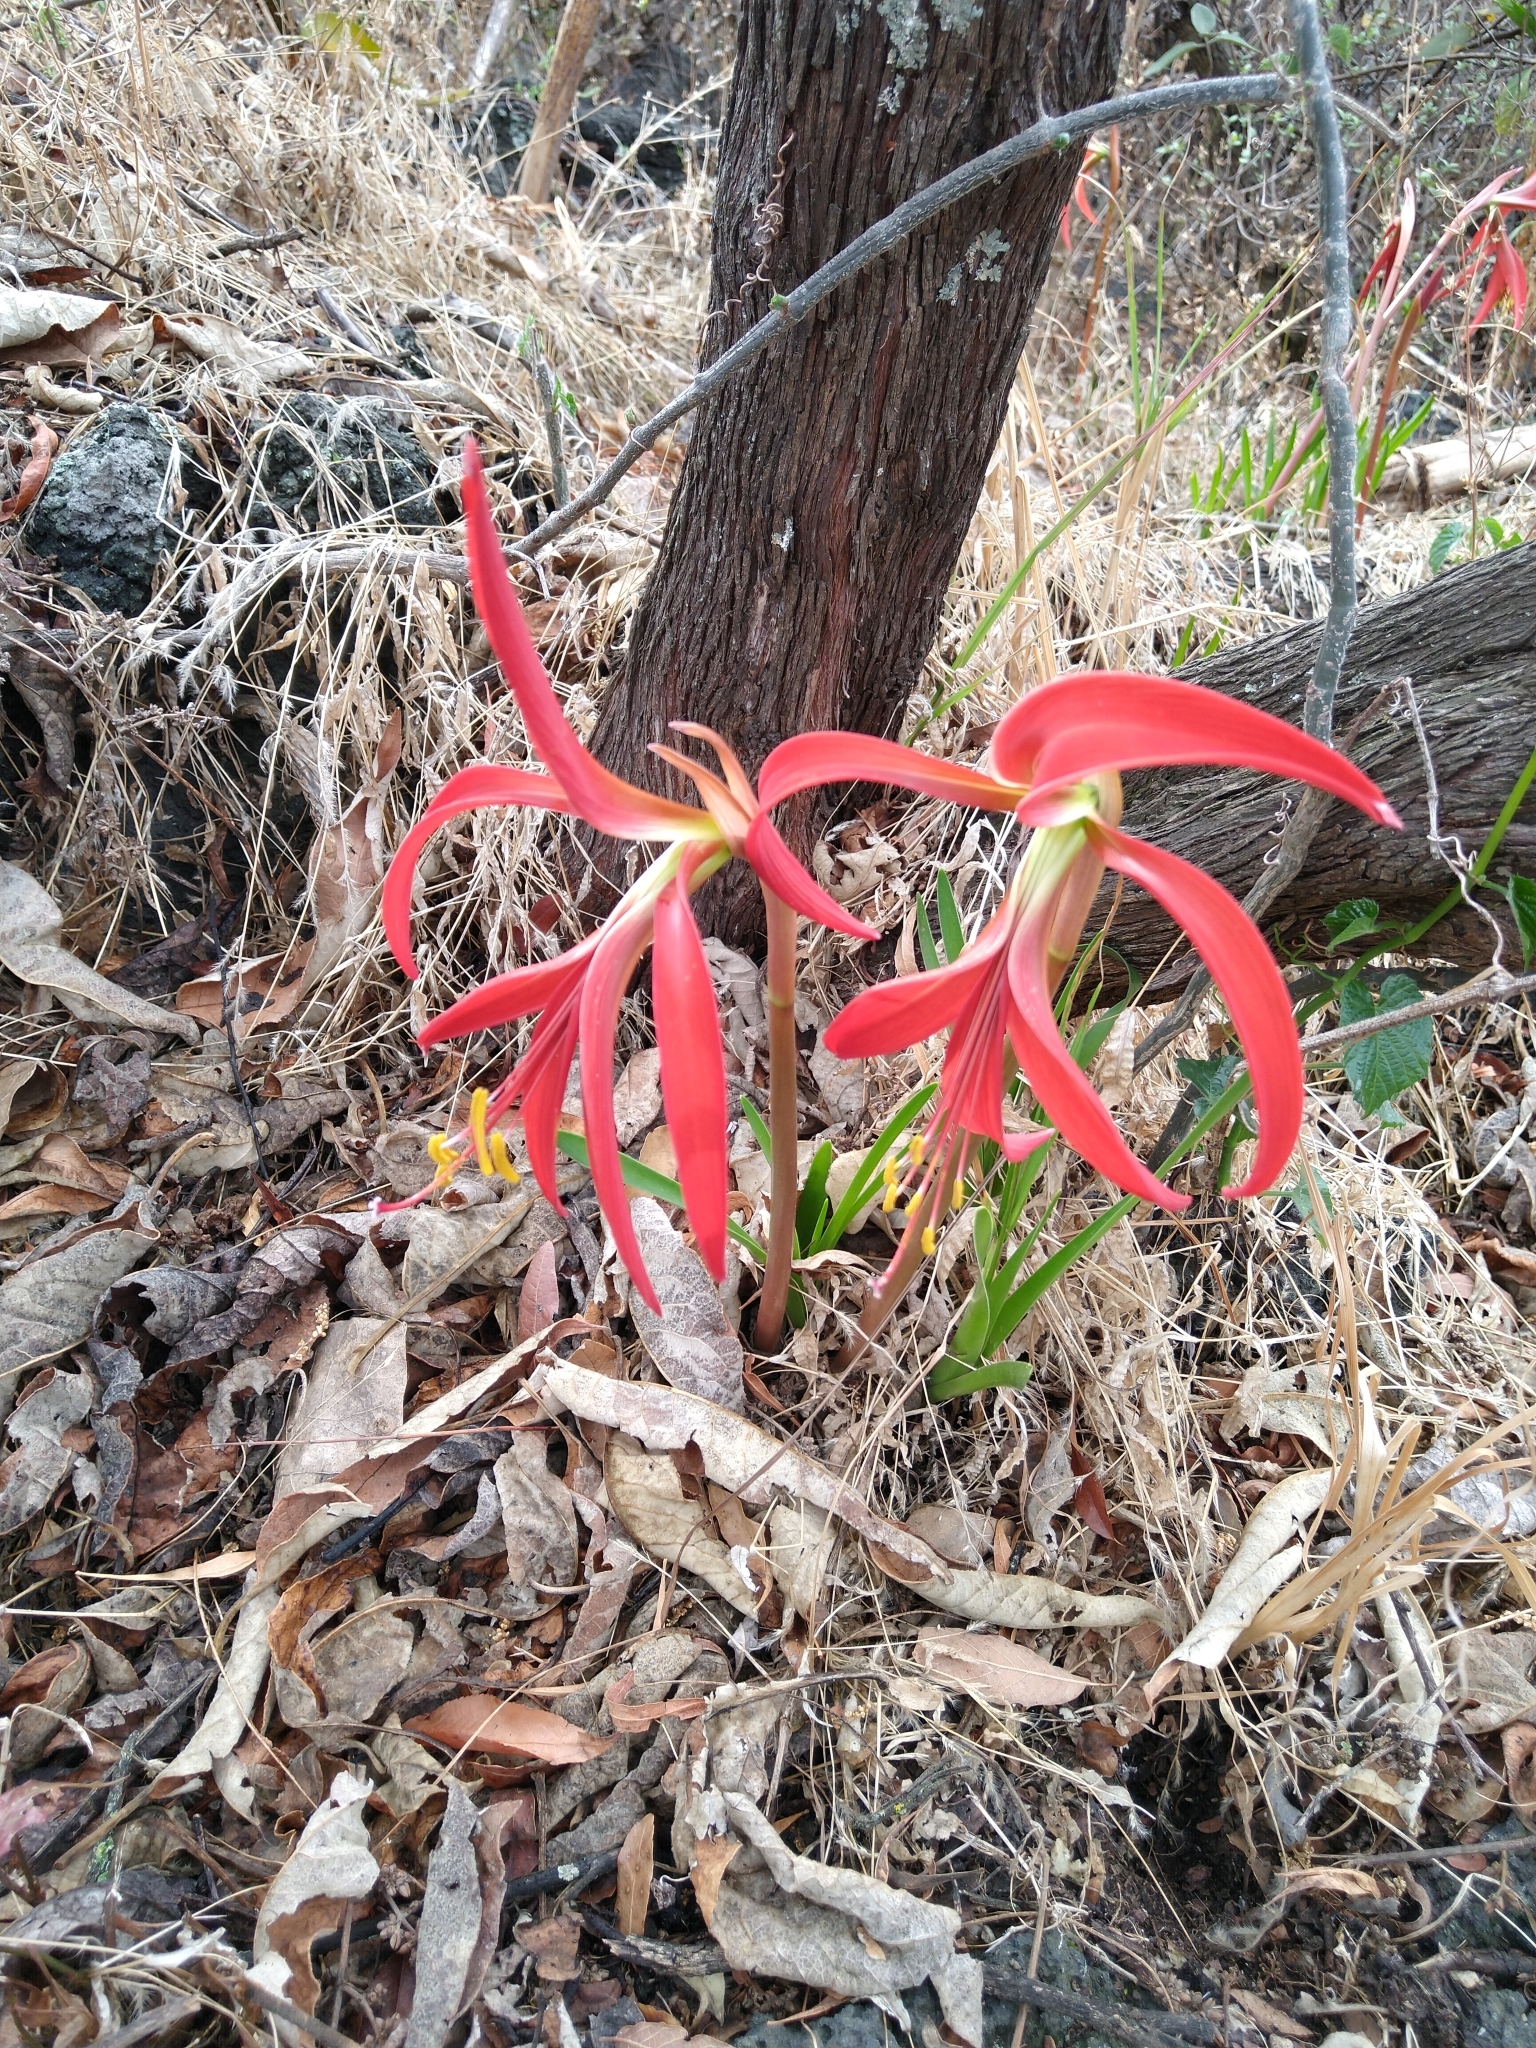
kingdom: Plantae
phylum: Tracheophyta
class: Liliopsida
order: Asparagales
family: Amaryllidaceae
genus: Sprekelia
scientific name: Sprekelia formosissima
